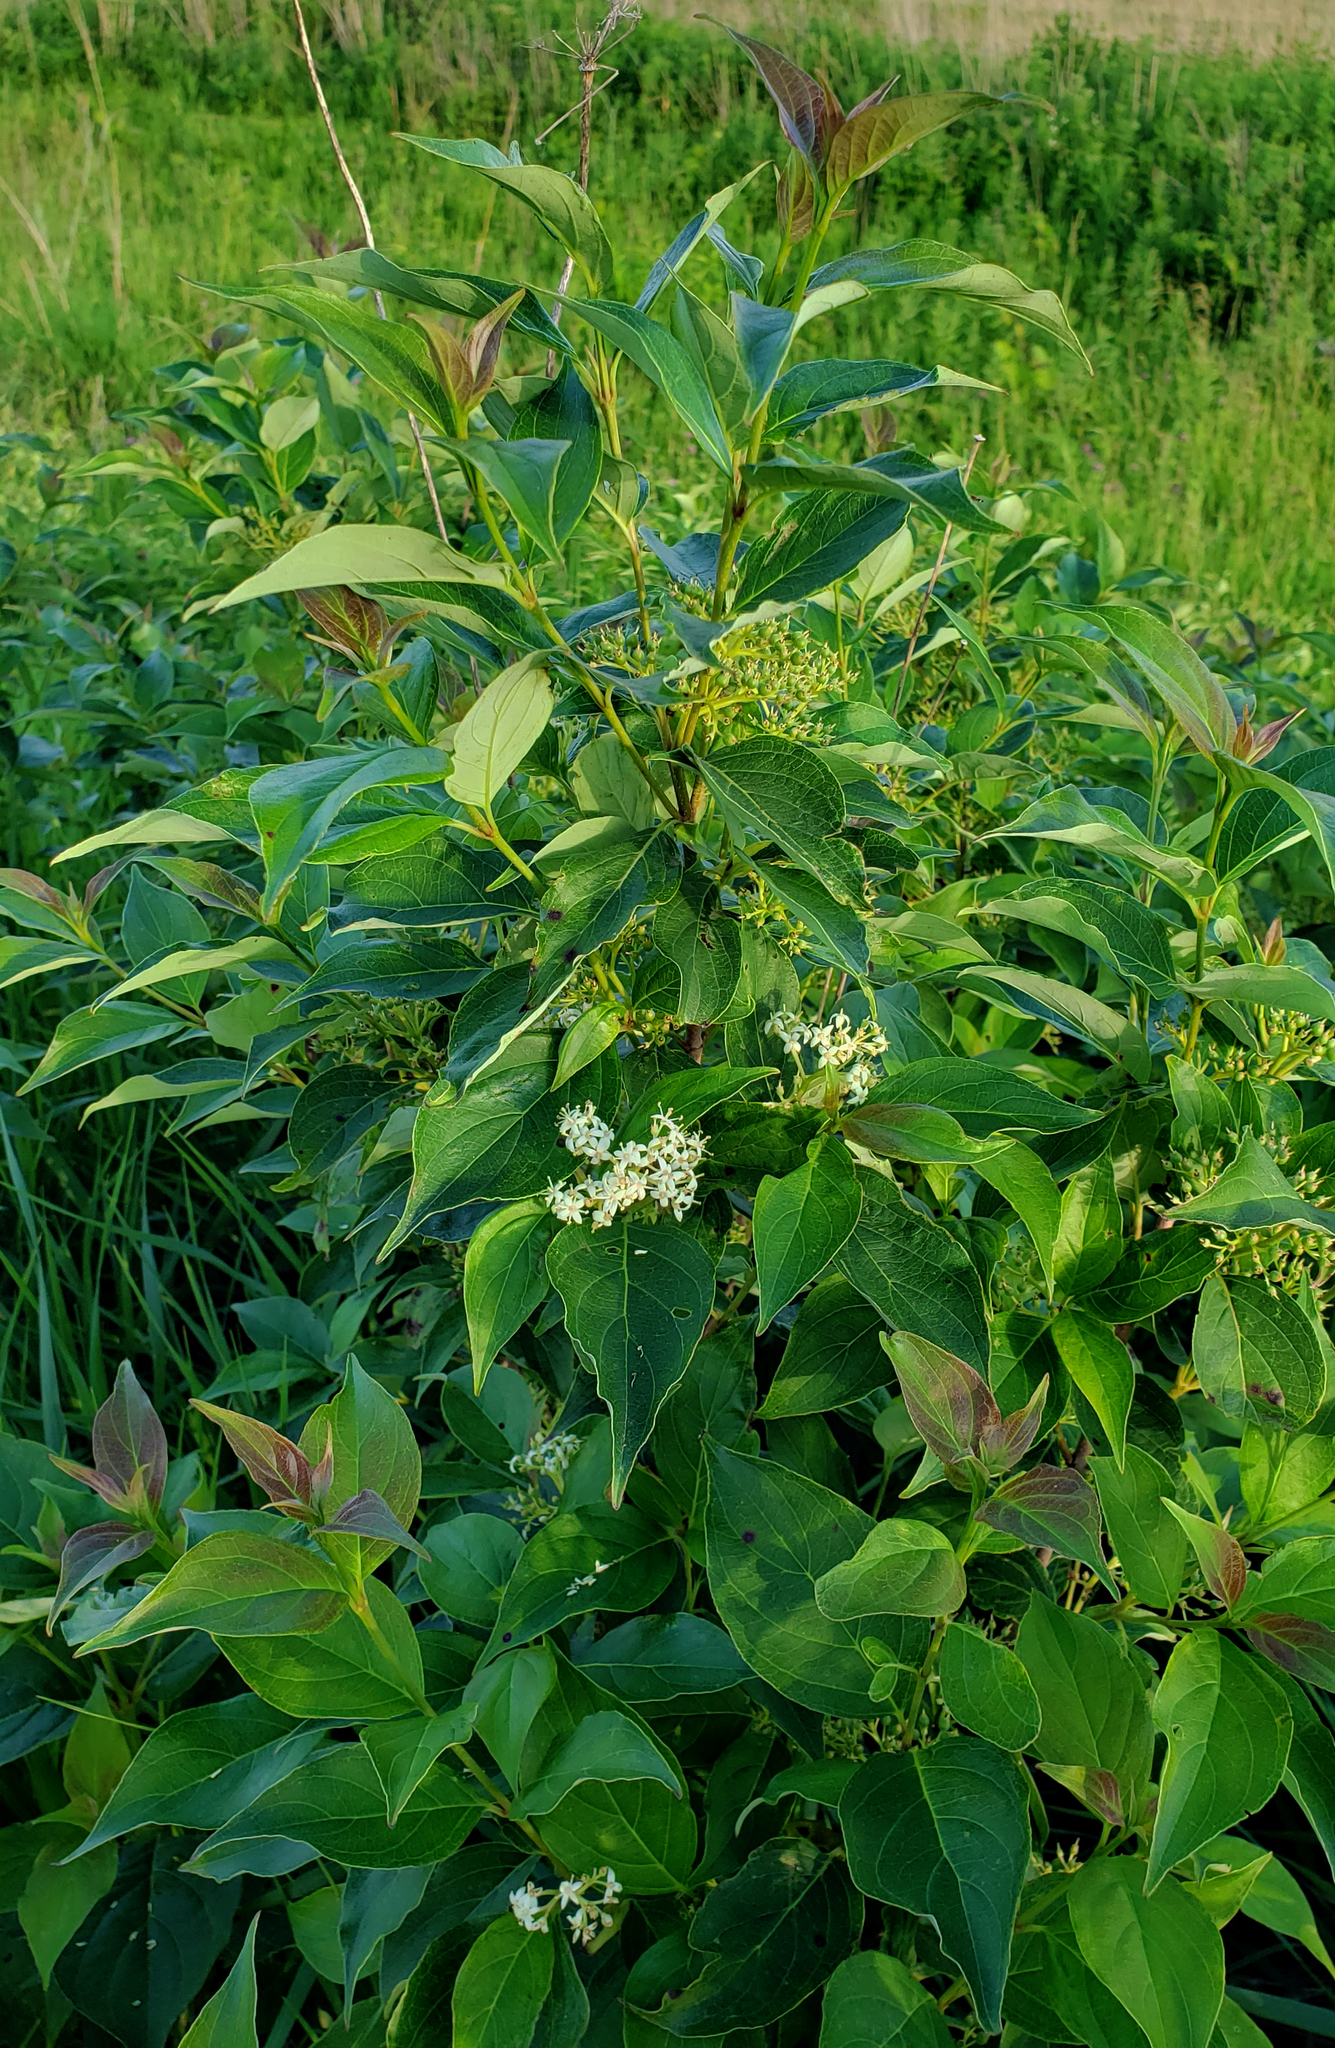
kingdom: Plantae
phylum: Tracheophyta
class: Magnoliopsida
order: Cornales
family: Cornaceae
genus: Cornus
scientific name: Cornus racemosa
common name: Panicled dogwood
